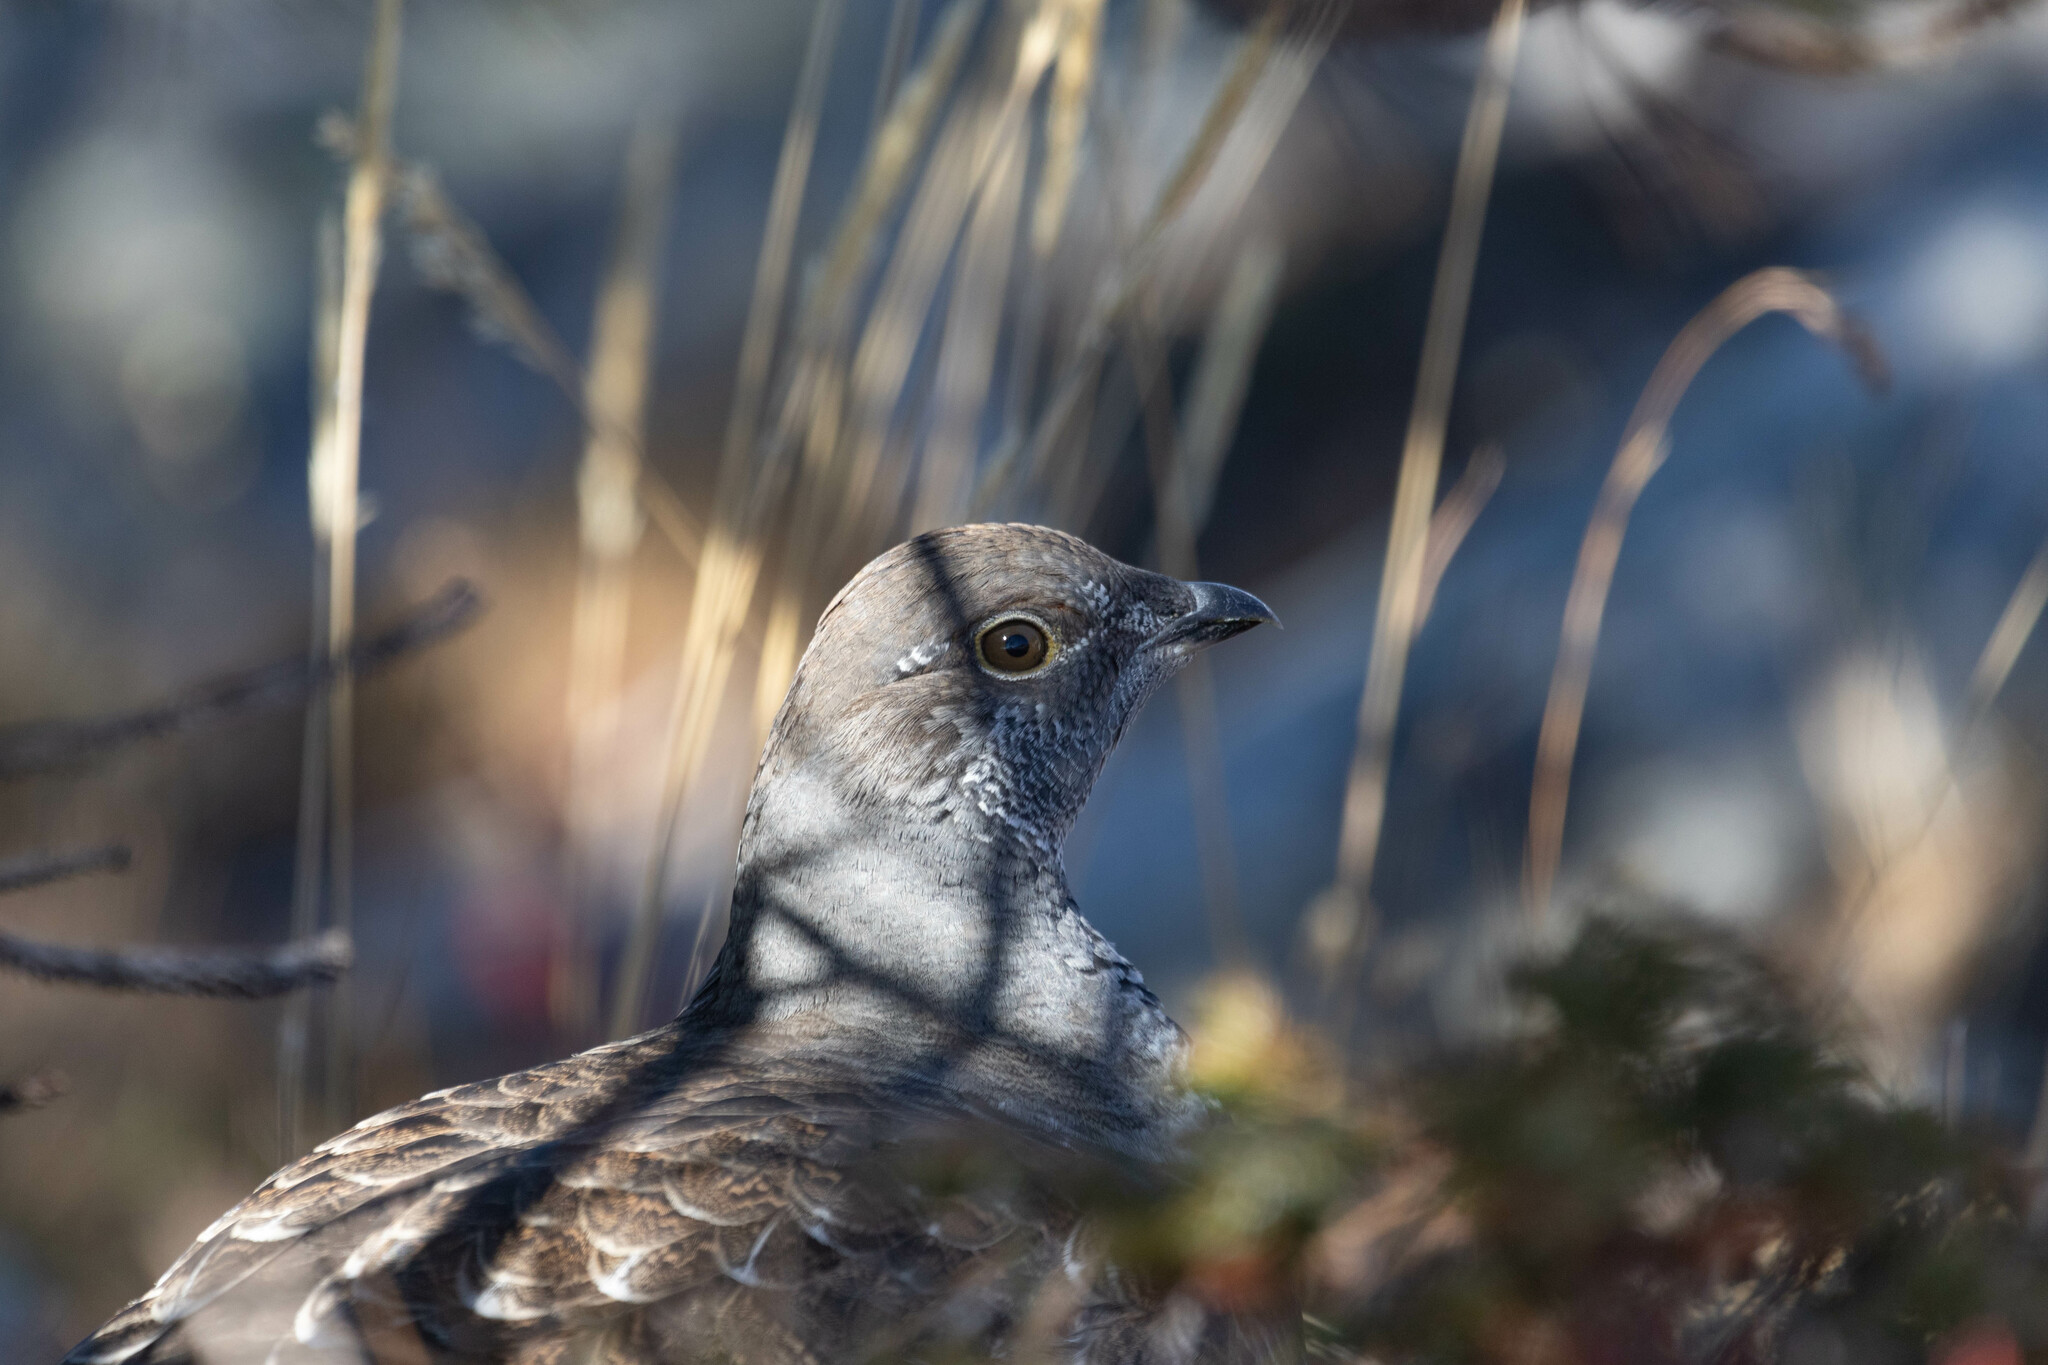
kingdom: Animalia
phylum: Chordata
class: Aves
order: Galliformes
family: Phasianidae
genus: Dendragapus
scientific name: Dendragapus obscurus
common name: Dusky grouse
